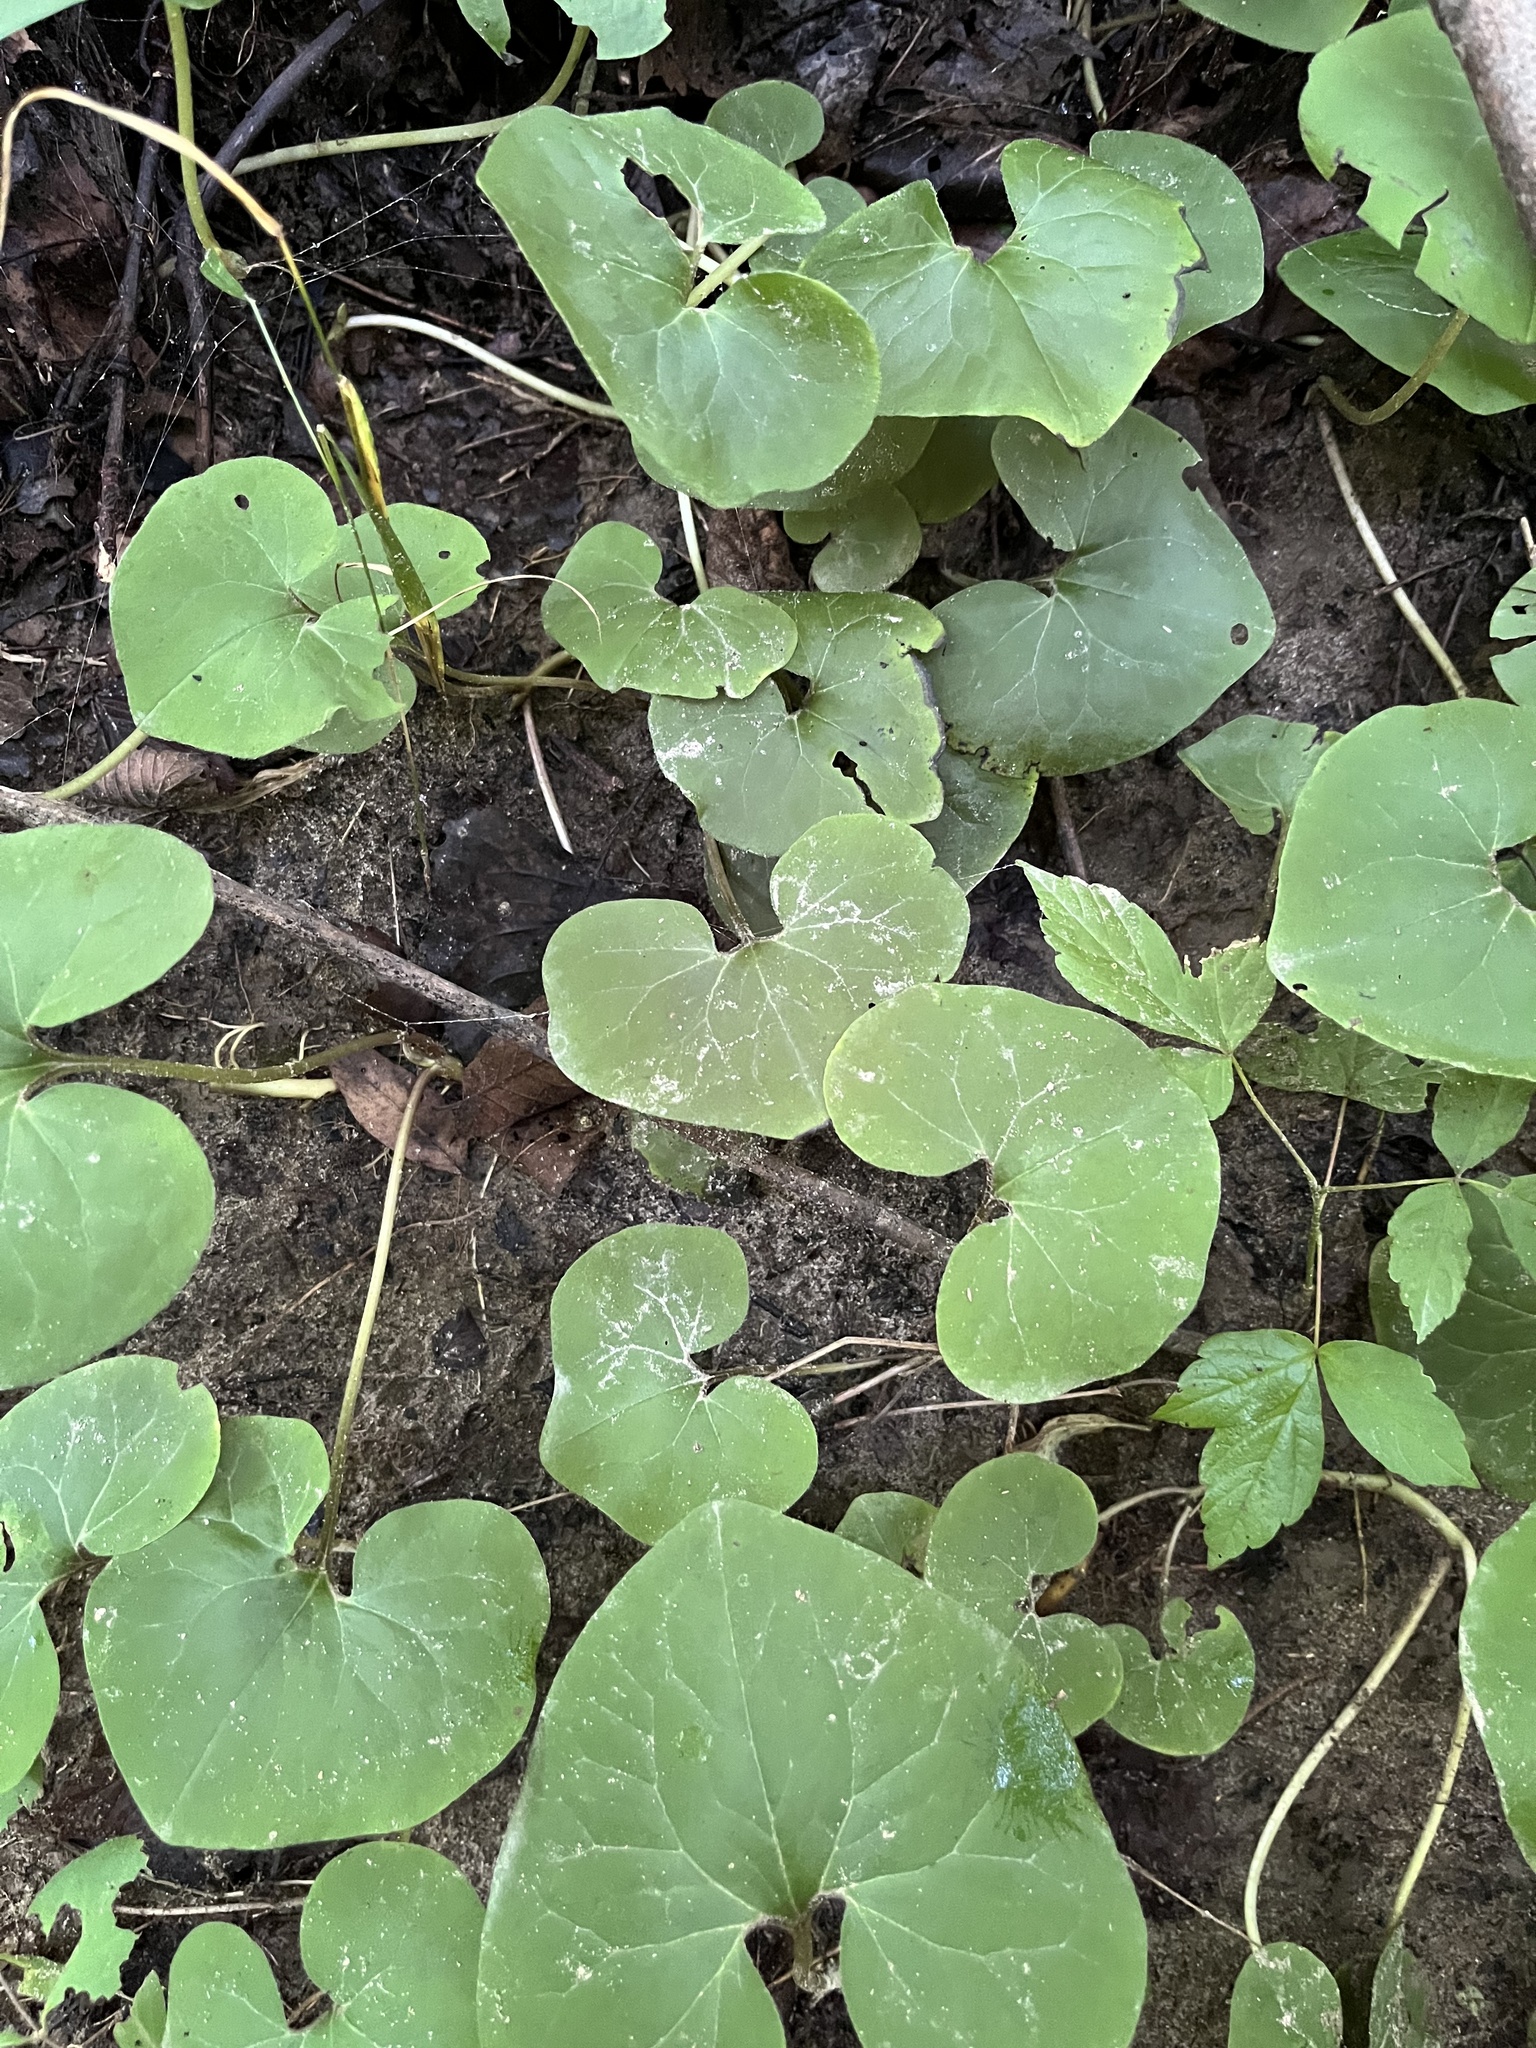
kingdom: Plantae
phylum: Tracheophyta
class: Magnoliopsida
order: Piperales
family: Aristolochiaceae
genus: Asarum
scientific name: Asarum canadense
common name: Wild ginger
